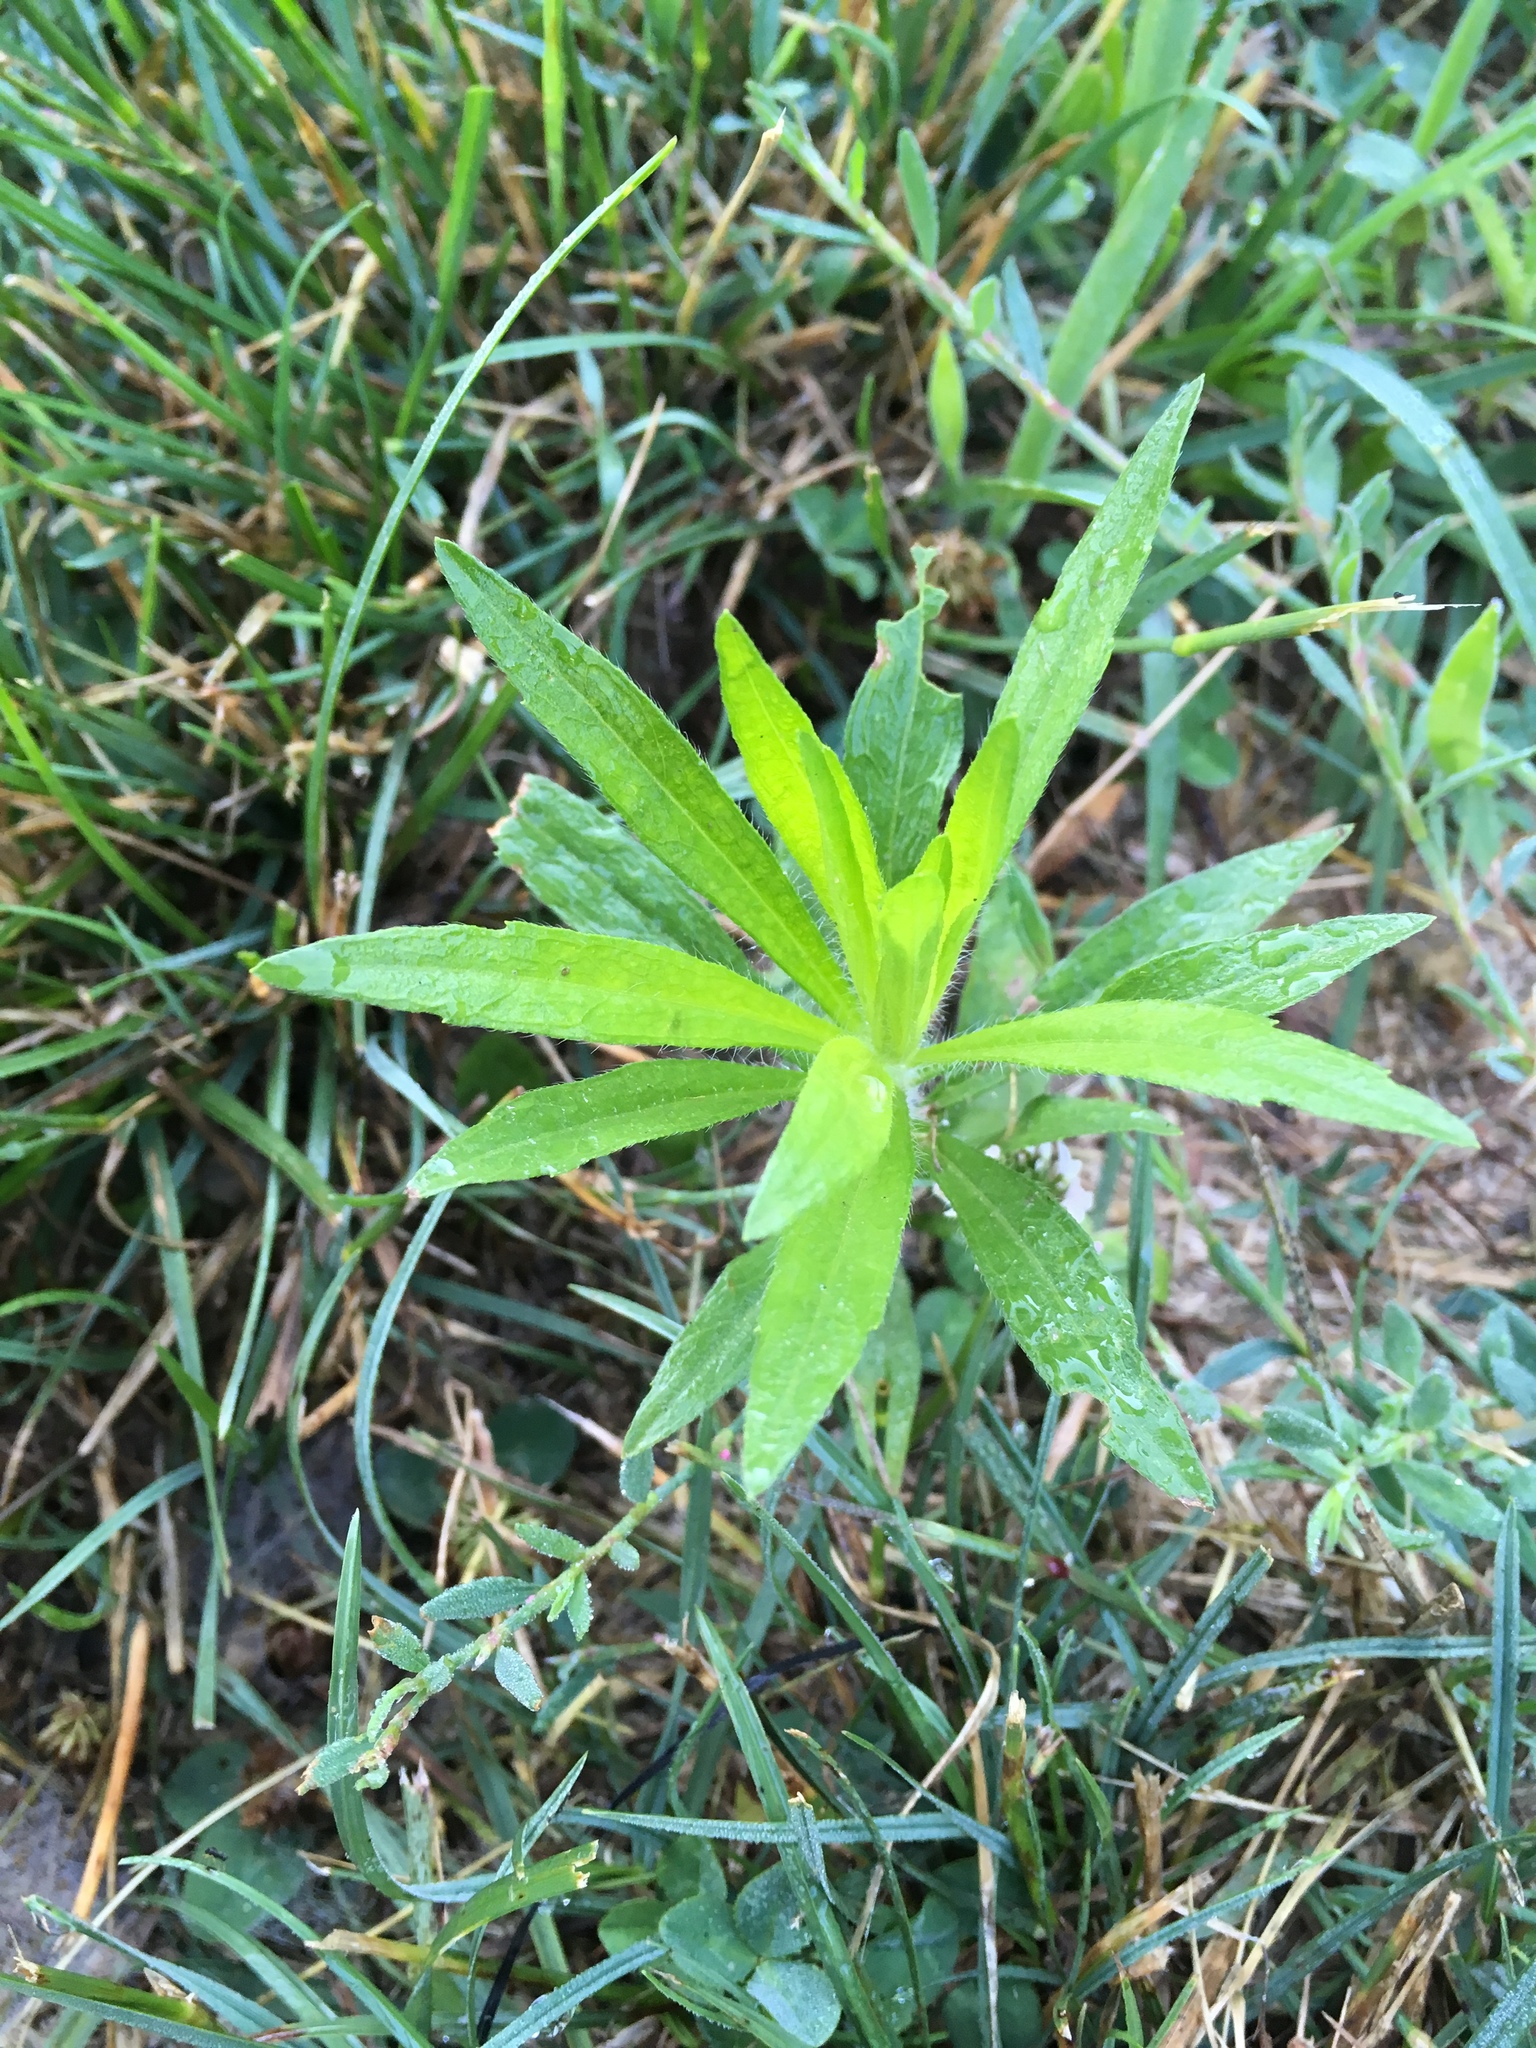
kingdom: Plantae
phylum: Tracheophyta
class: Magnoliopsida
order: Asterales
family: Asteraceae
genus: Erigeron
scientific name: Erigeron canadensis
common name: Canadian fleabane
